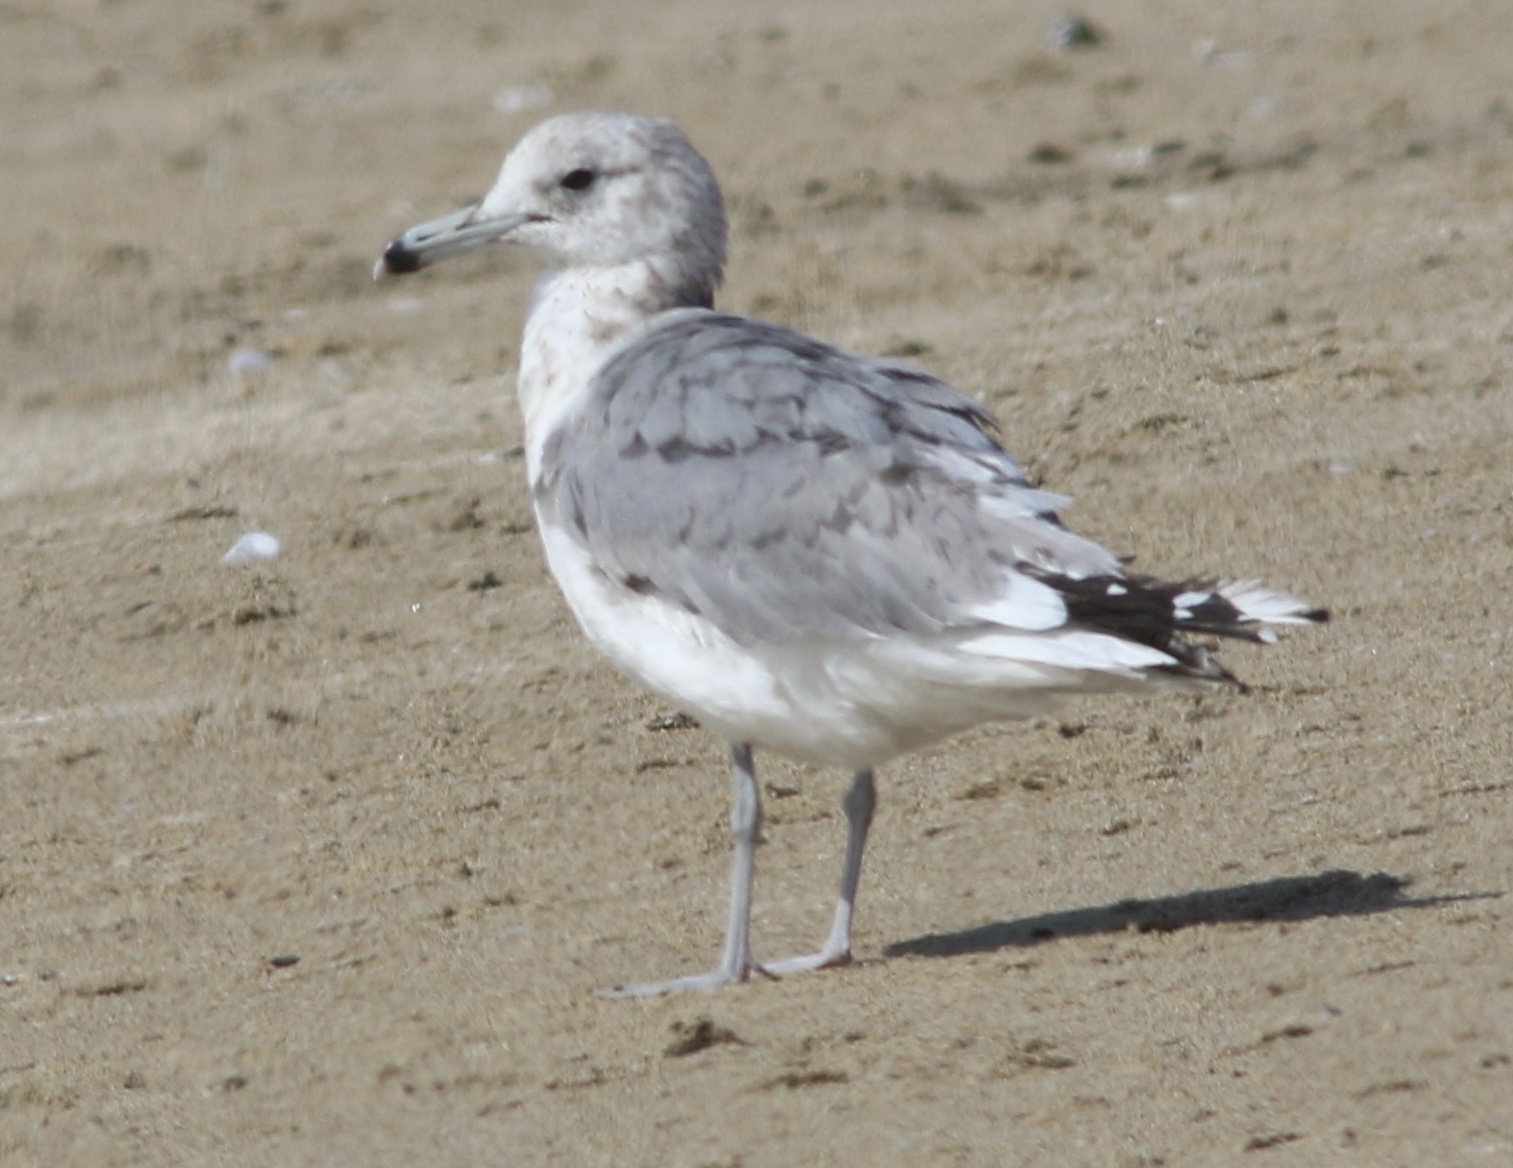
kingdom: Animalia
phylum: Chordata
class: Aves
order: Charadriiformes
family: Laridae
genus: Larus
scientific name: Larus californicus
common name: California gull
